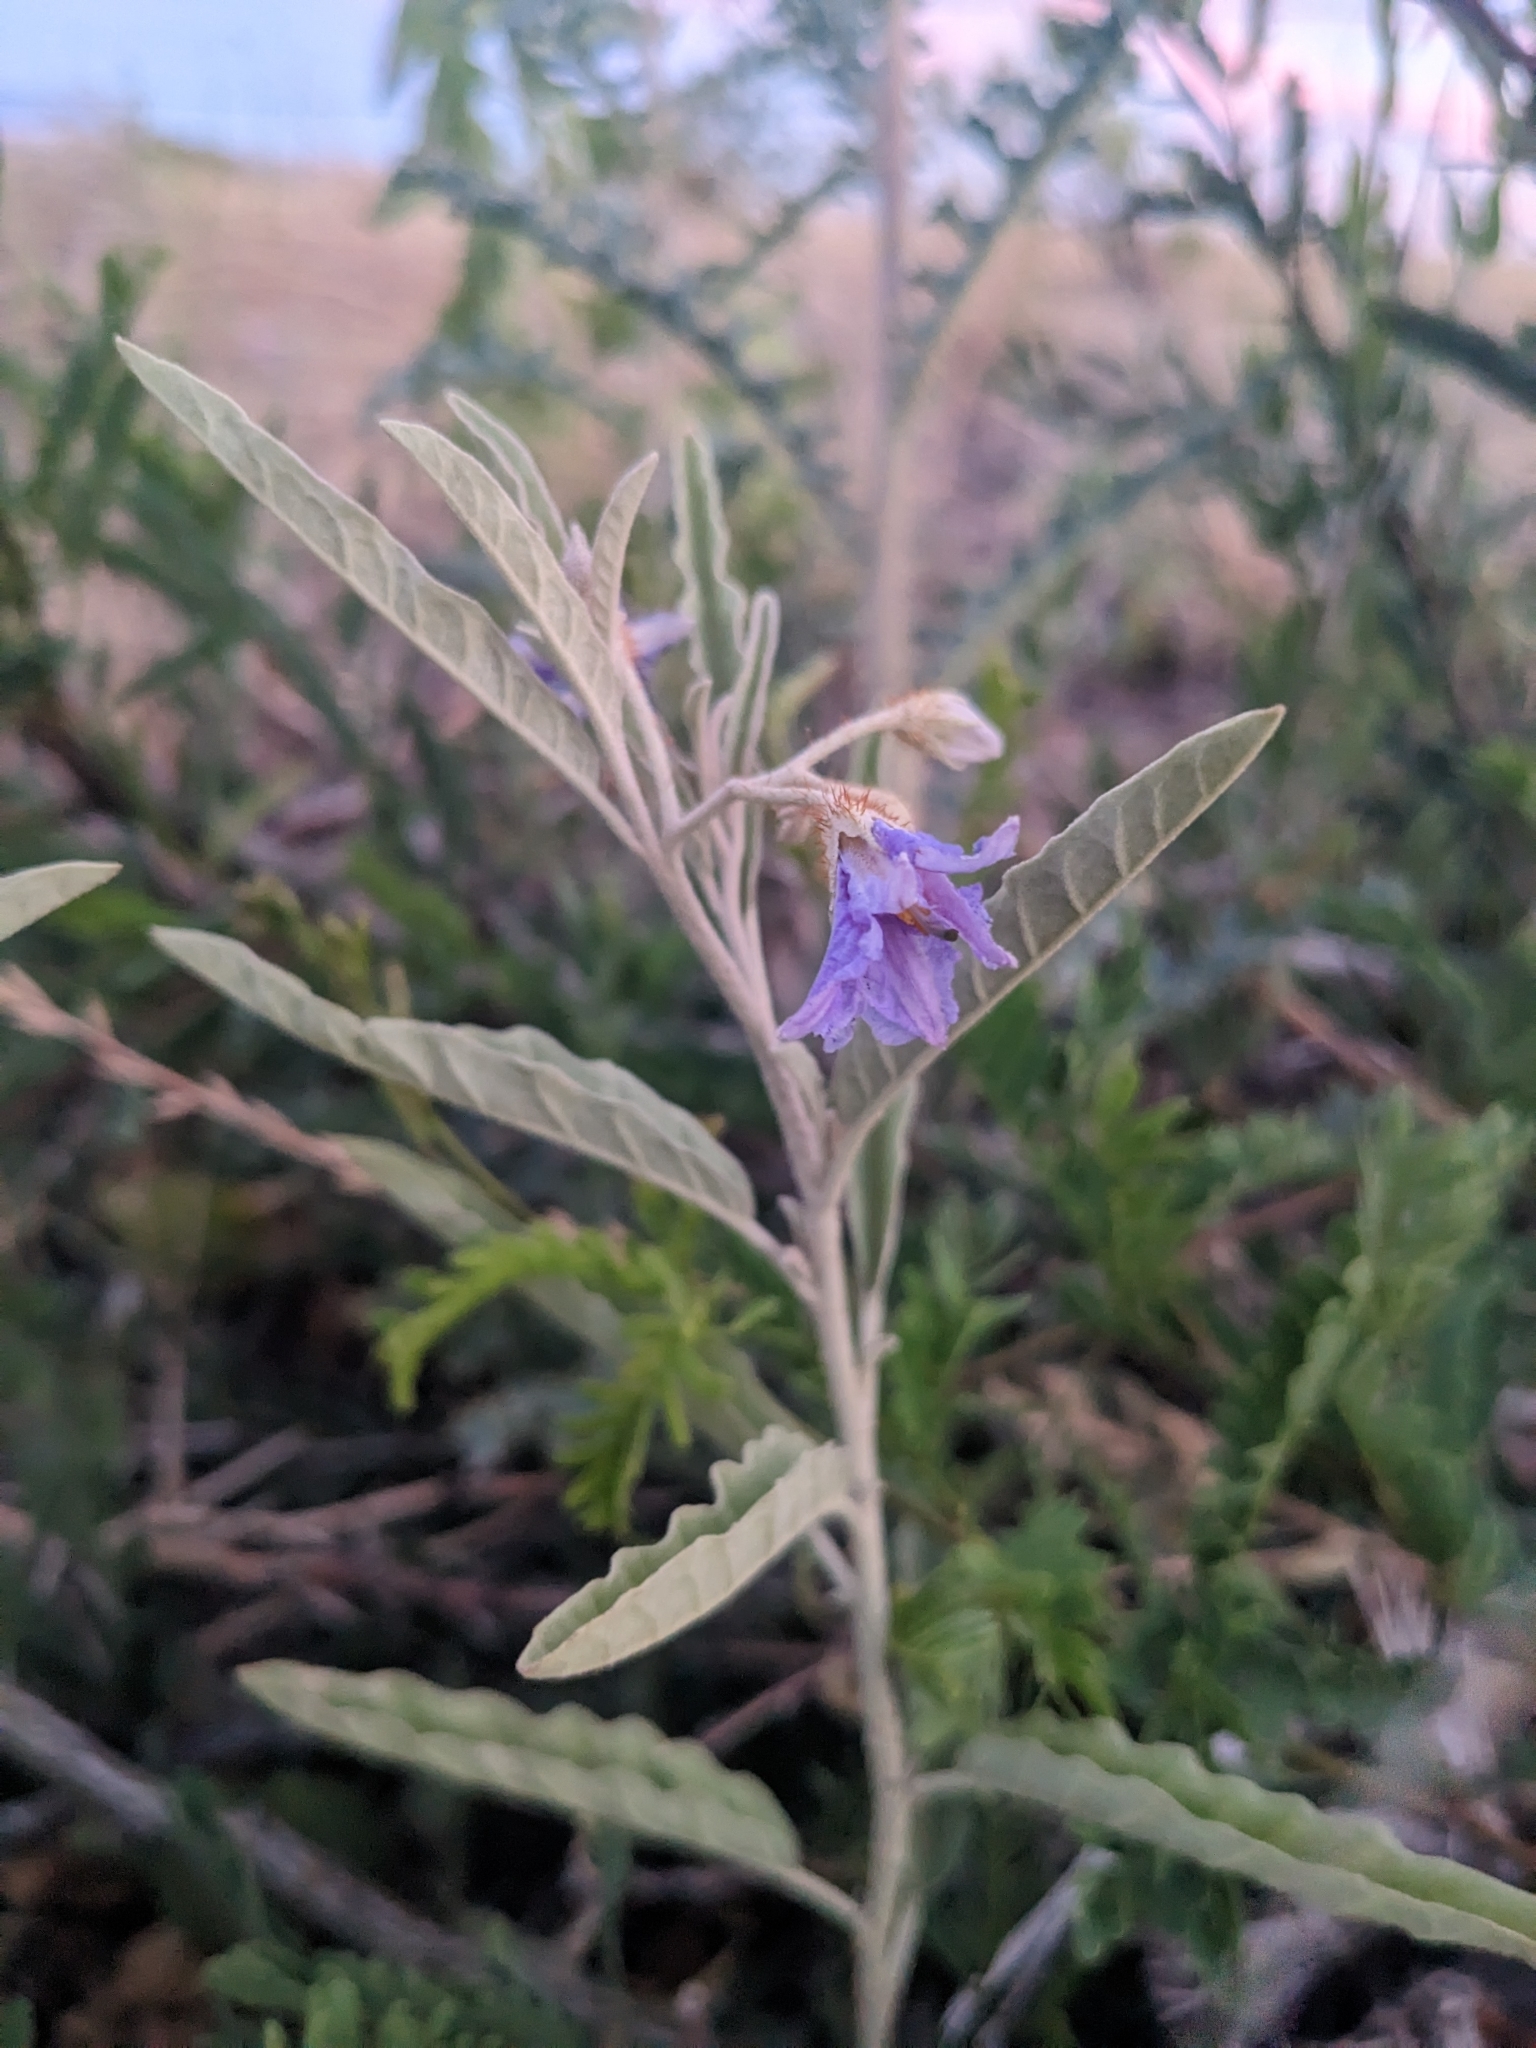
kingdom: Plantae
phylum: Tracheophyta
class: Magnoliopsida
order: Solanales
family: Solanaceae
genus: Solanum
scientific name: Solanum elaeagnifolium
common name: Silverleaf nightshade
